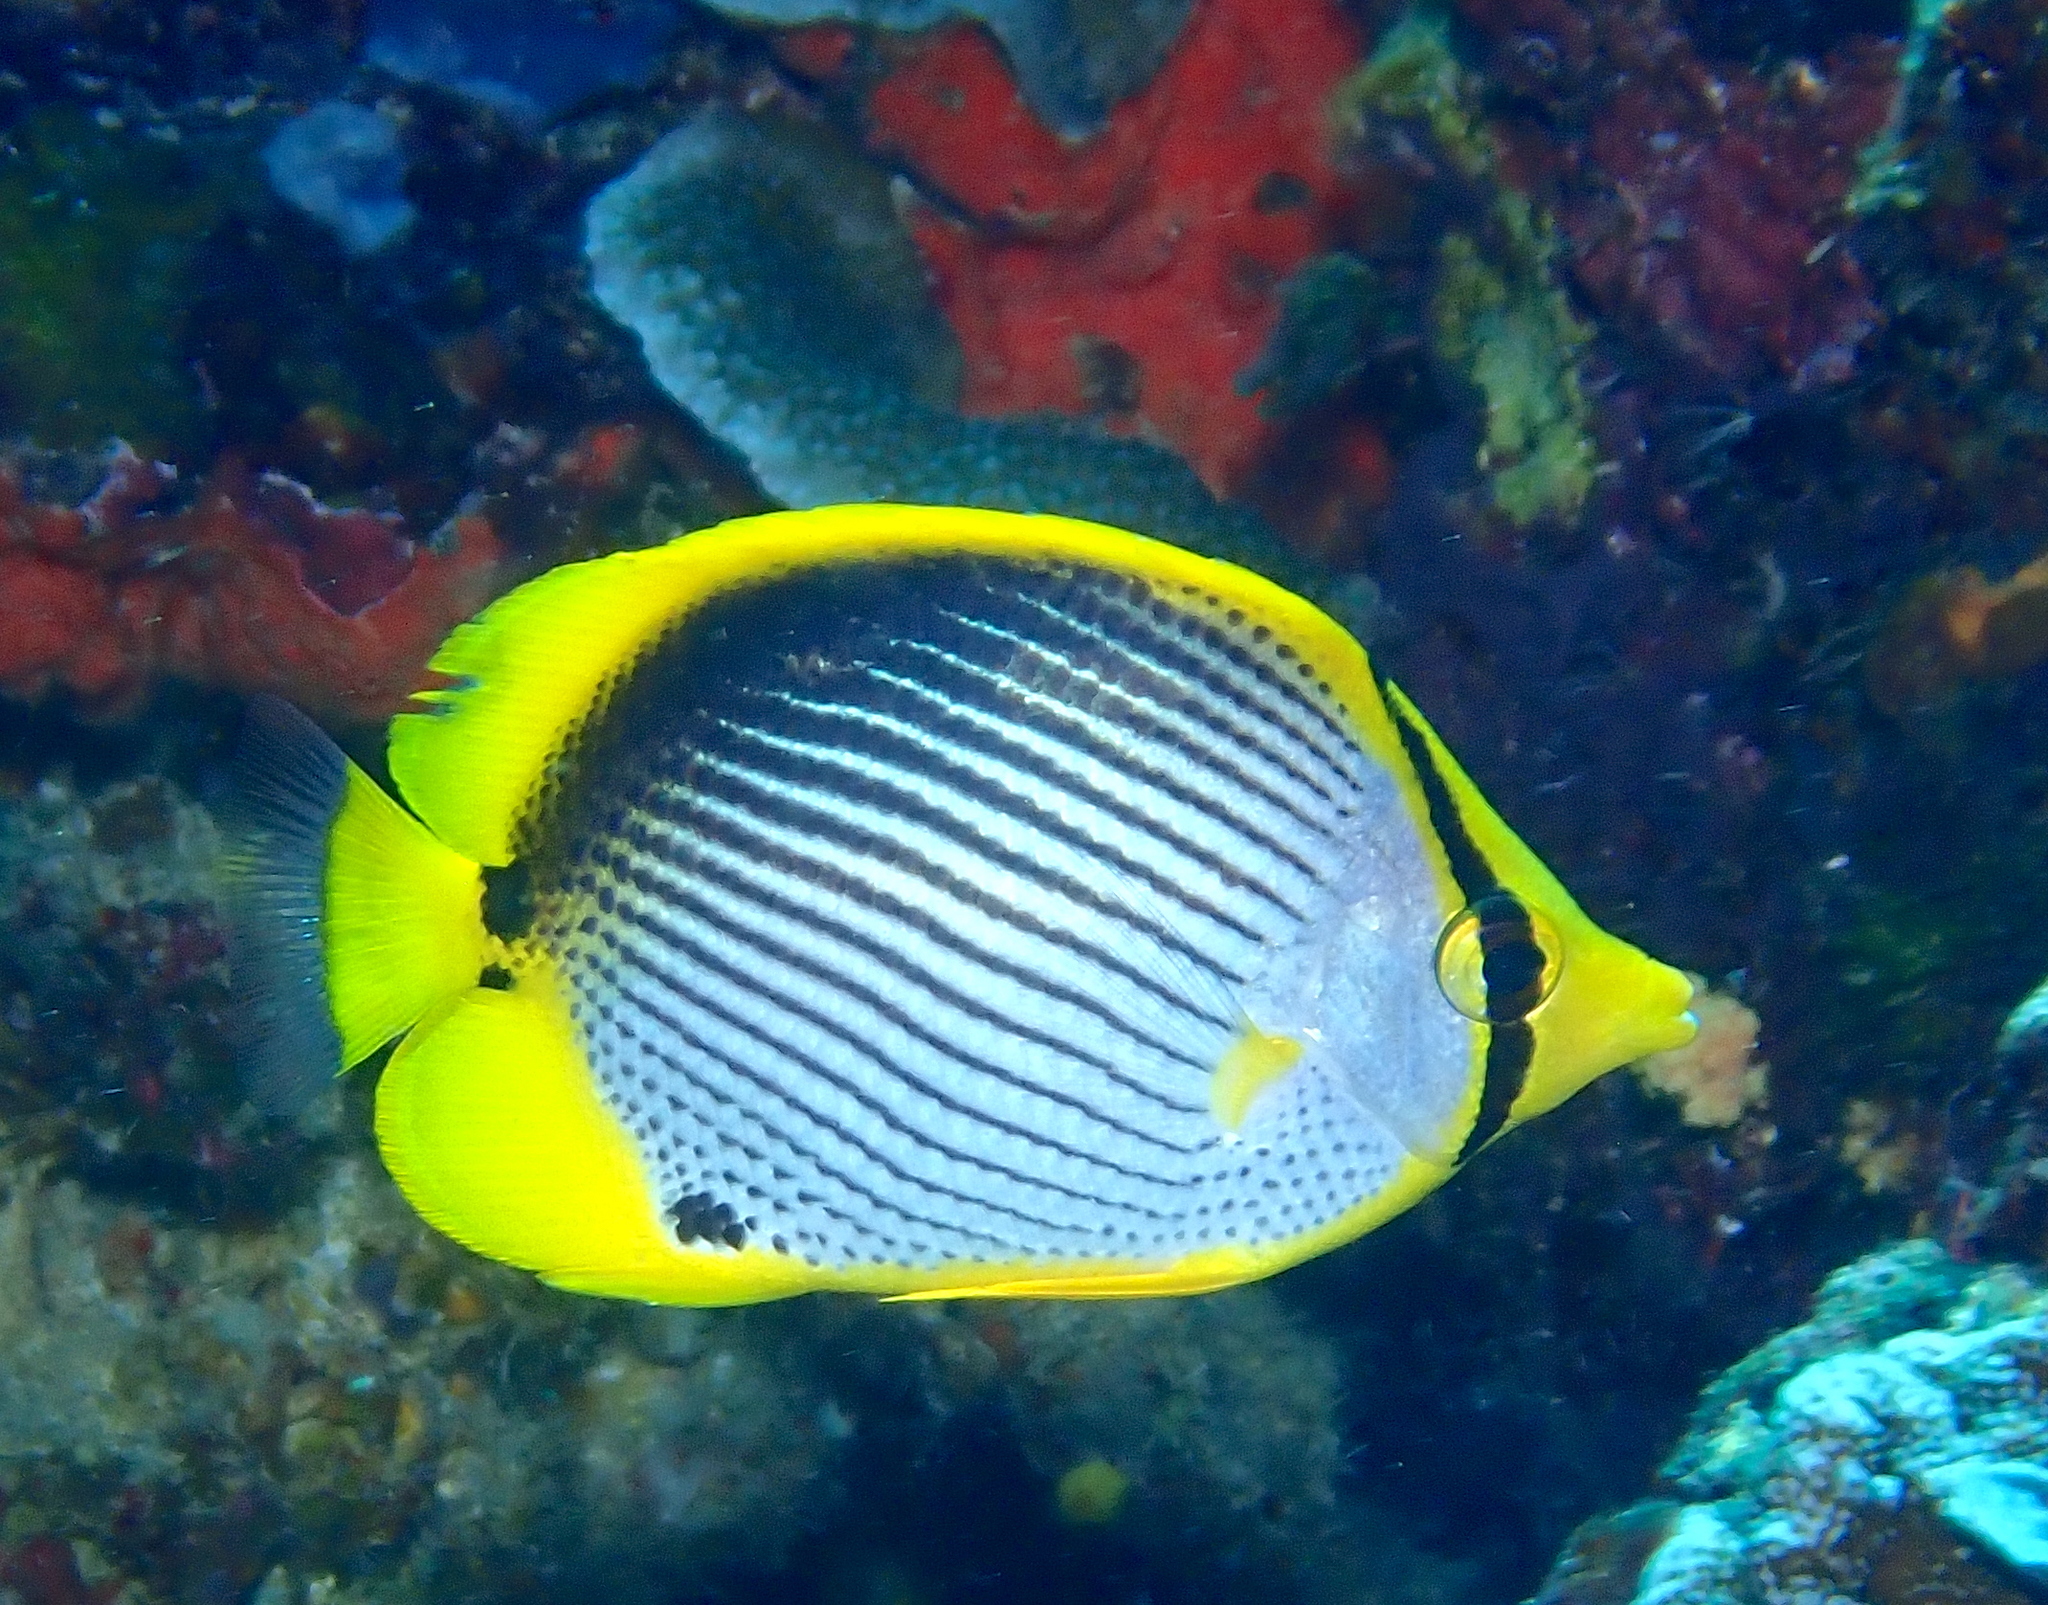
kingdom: Animalia
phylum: Chordata
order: Perciformes
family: Chaetodontidae
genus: Chaetodon
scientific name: Chaetodon melannotus
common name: Blackback butterflyfish
